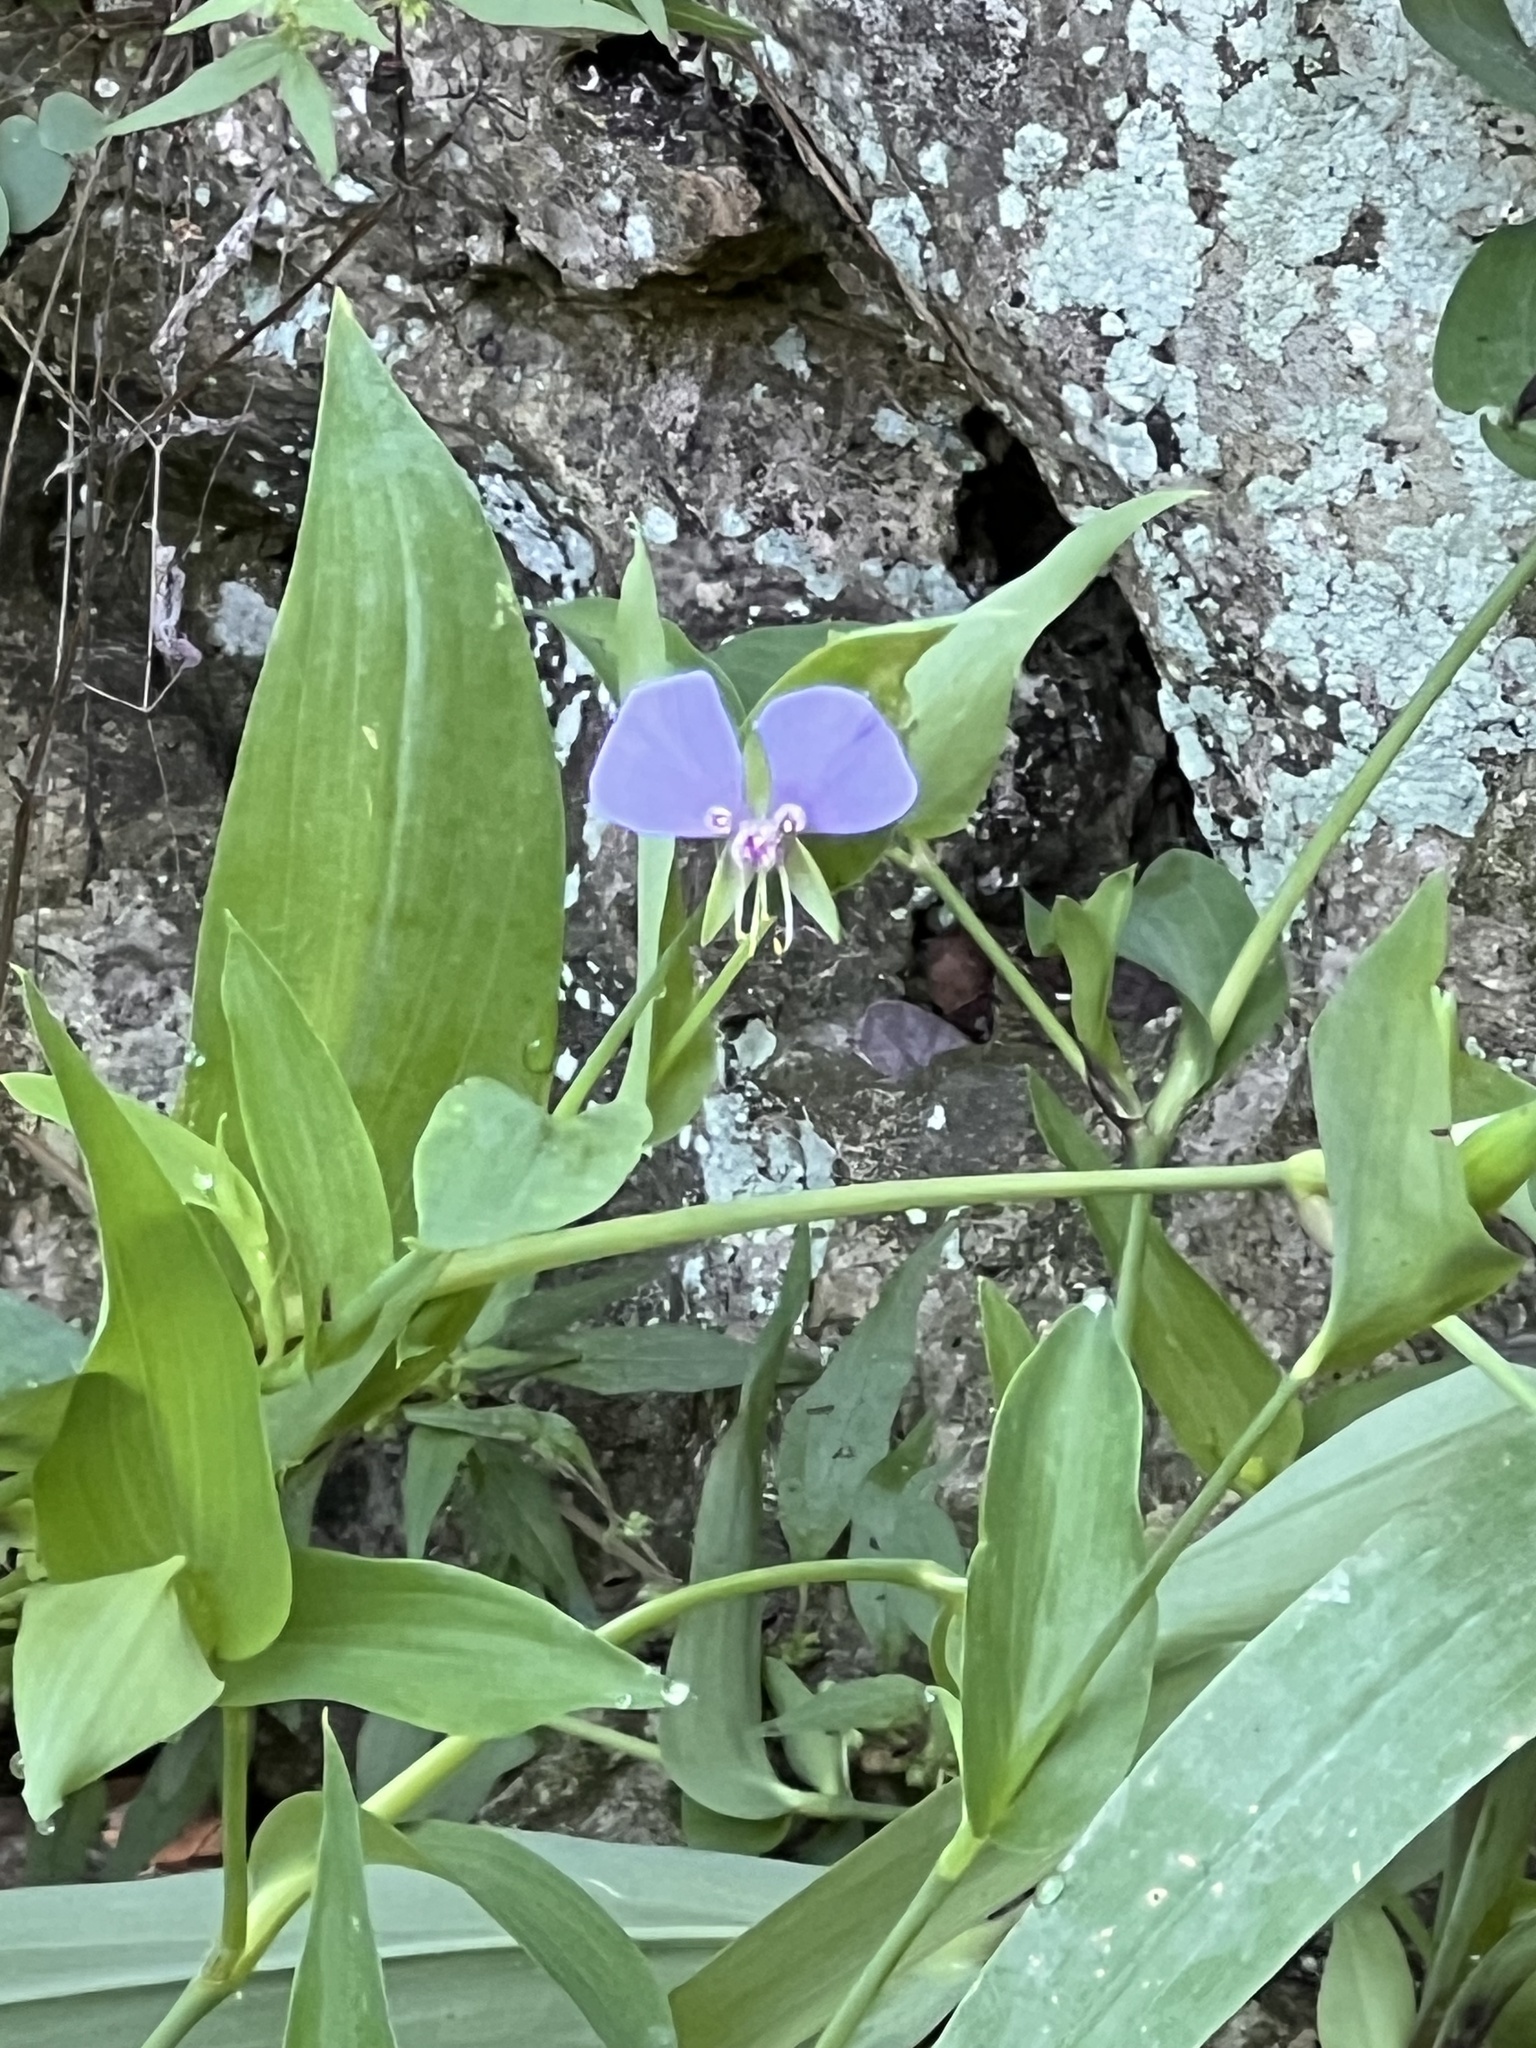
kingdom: Plantae
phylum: Tracheophyta
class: Liliopsida
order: Commelinales
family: Commelinaceae
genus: Tinantia
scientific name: Tinantia anomala
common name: False dayflower
